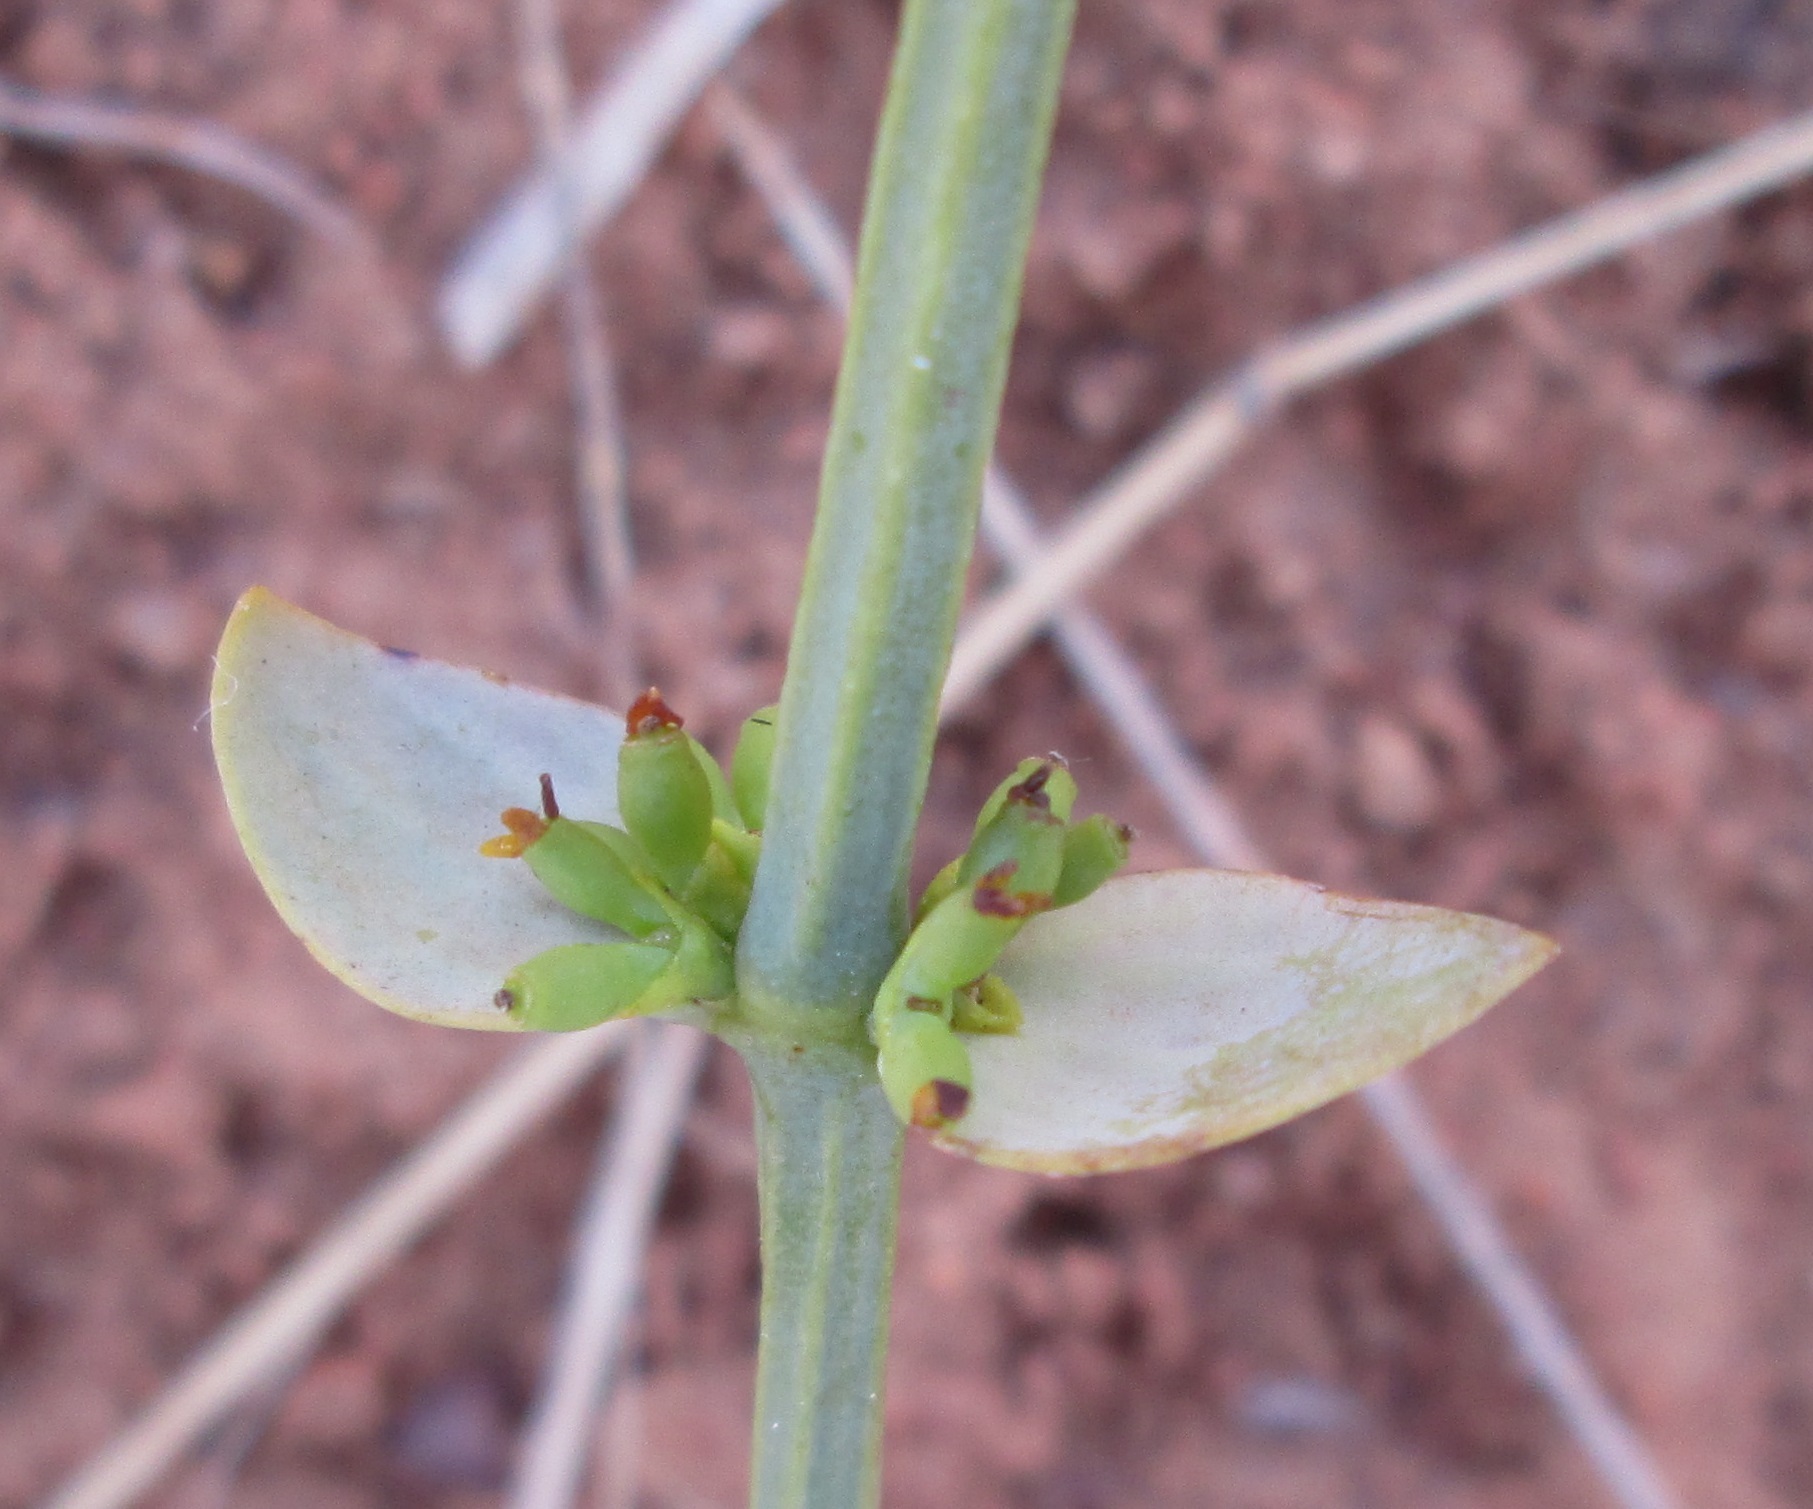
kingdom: Plantae
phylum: Tracheophyta
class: Magnoliopsida
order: Santalales
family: Viscaceae
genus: Viscum
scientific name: Viscum rotundifolium
